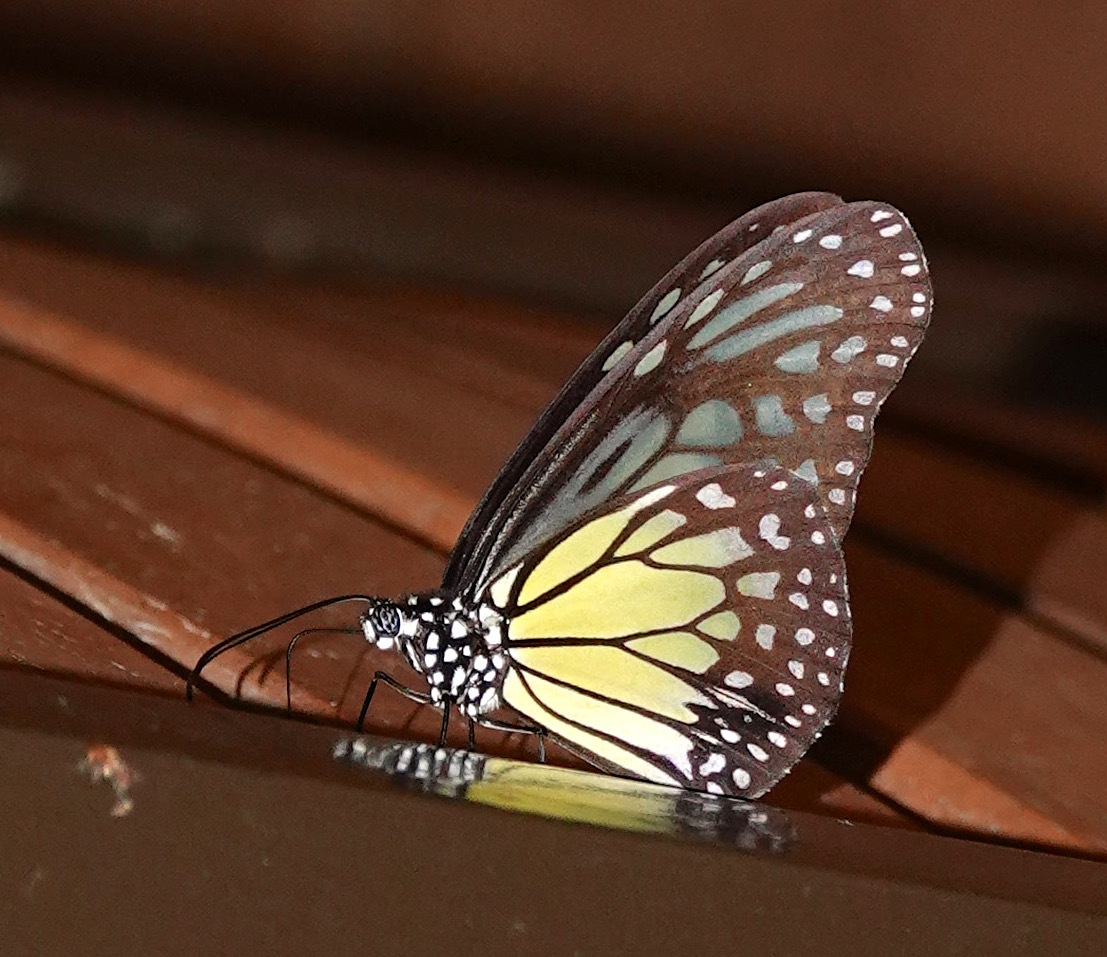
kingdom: Animalia
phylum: Arthropoda
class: Insecta
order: Lepidoptera
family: Nymphalidae
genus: Parantica
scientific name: Parantica aspasia
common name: Yellow glassy tiger
